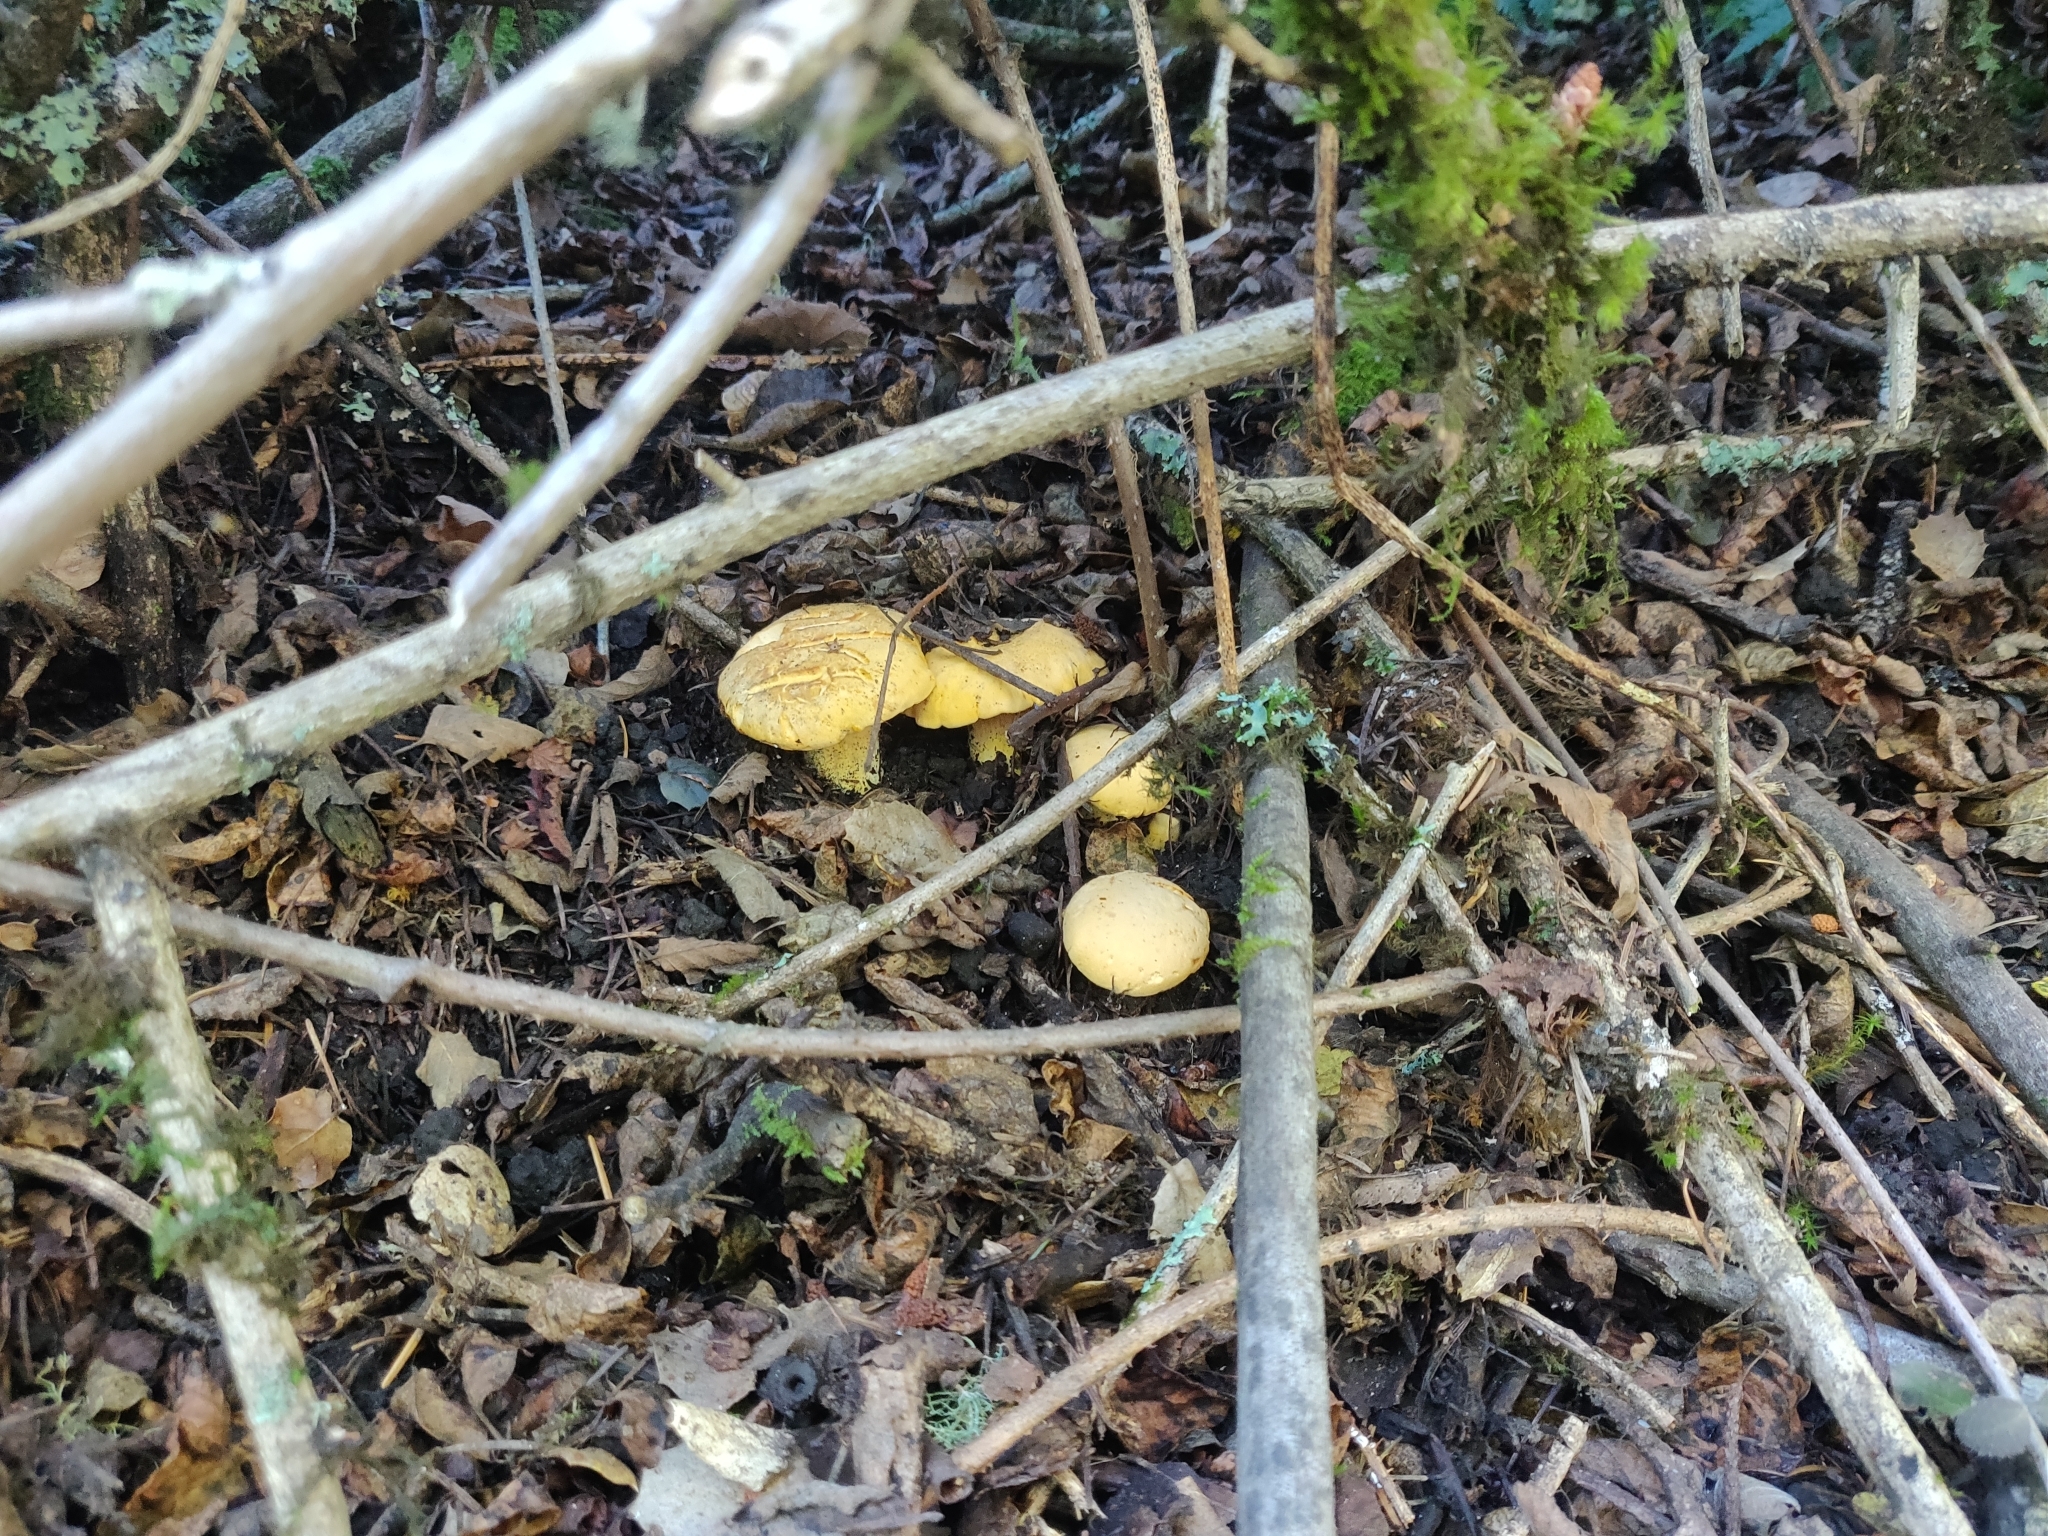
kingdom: Fungi
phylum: Basidiomycota
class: Agaricomycetes
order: Cantharellales
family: Hydnaceae
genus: Cantharellus
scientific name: Cantharellus californicus
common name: California golden chanterelle
